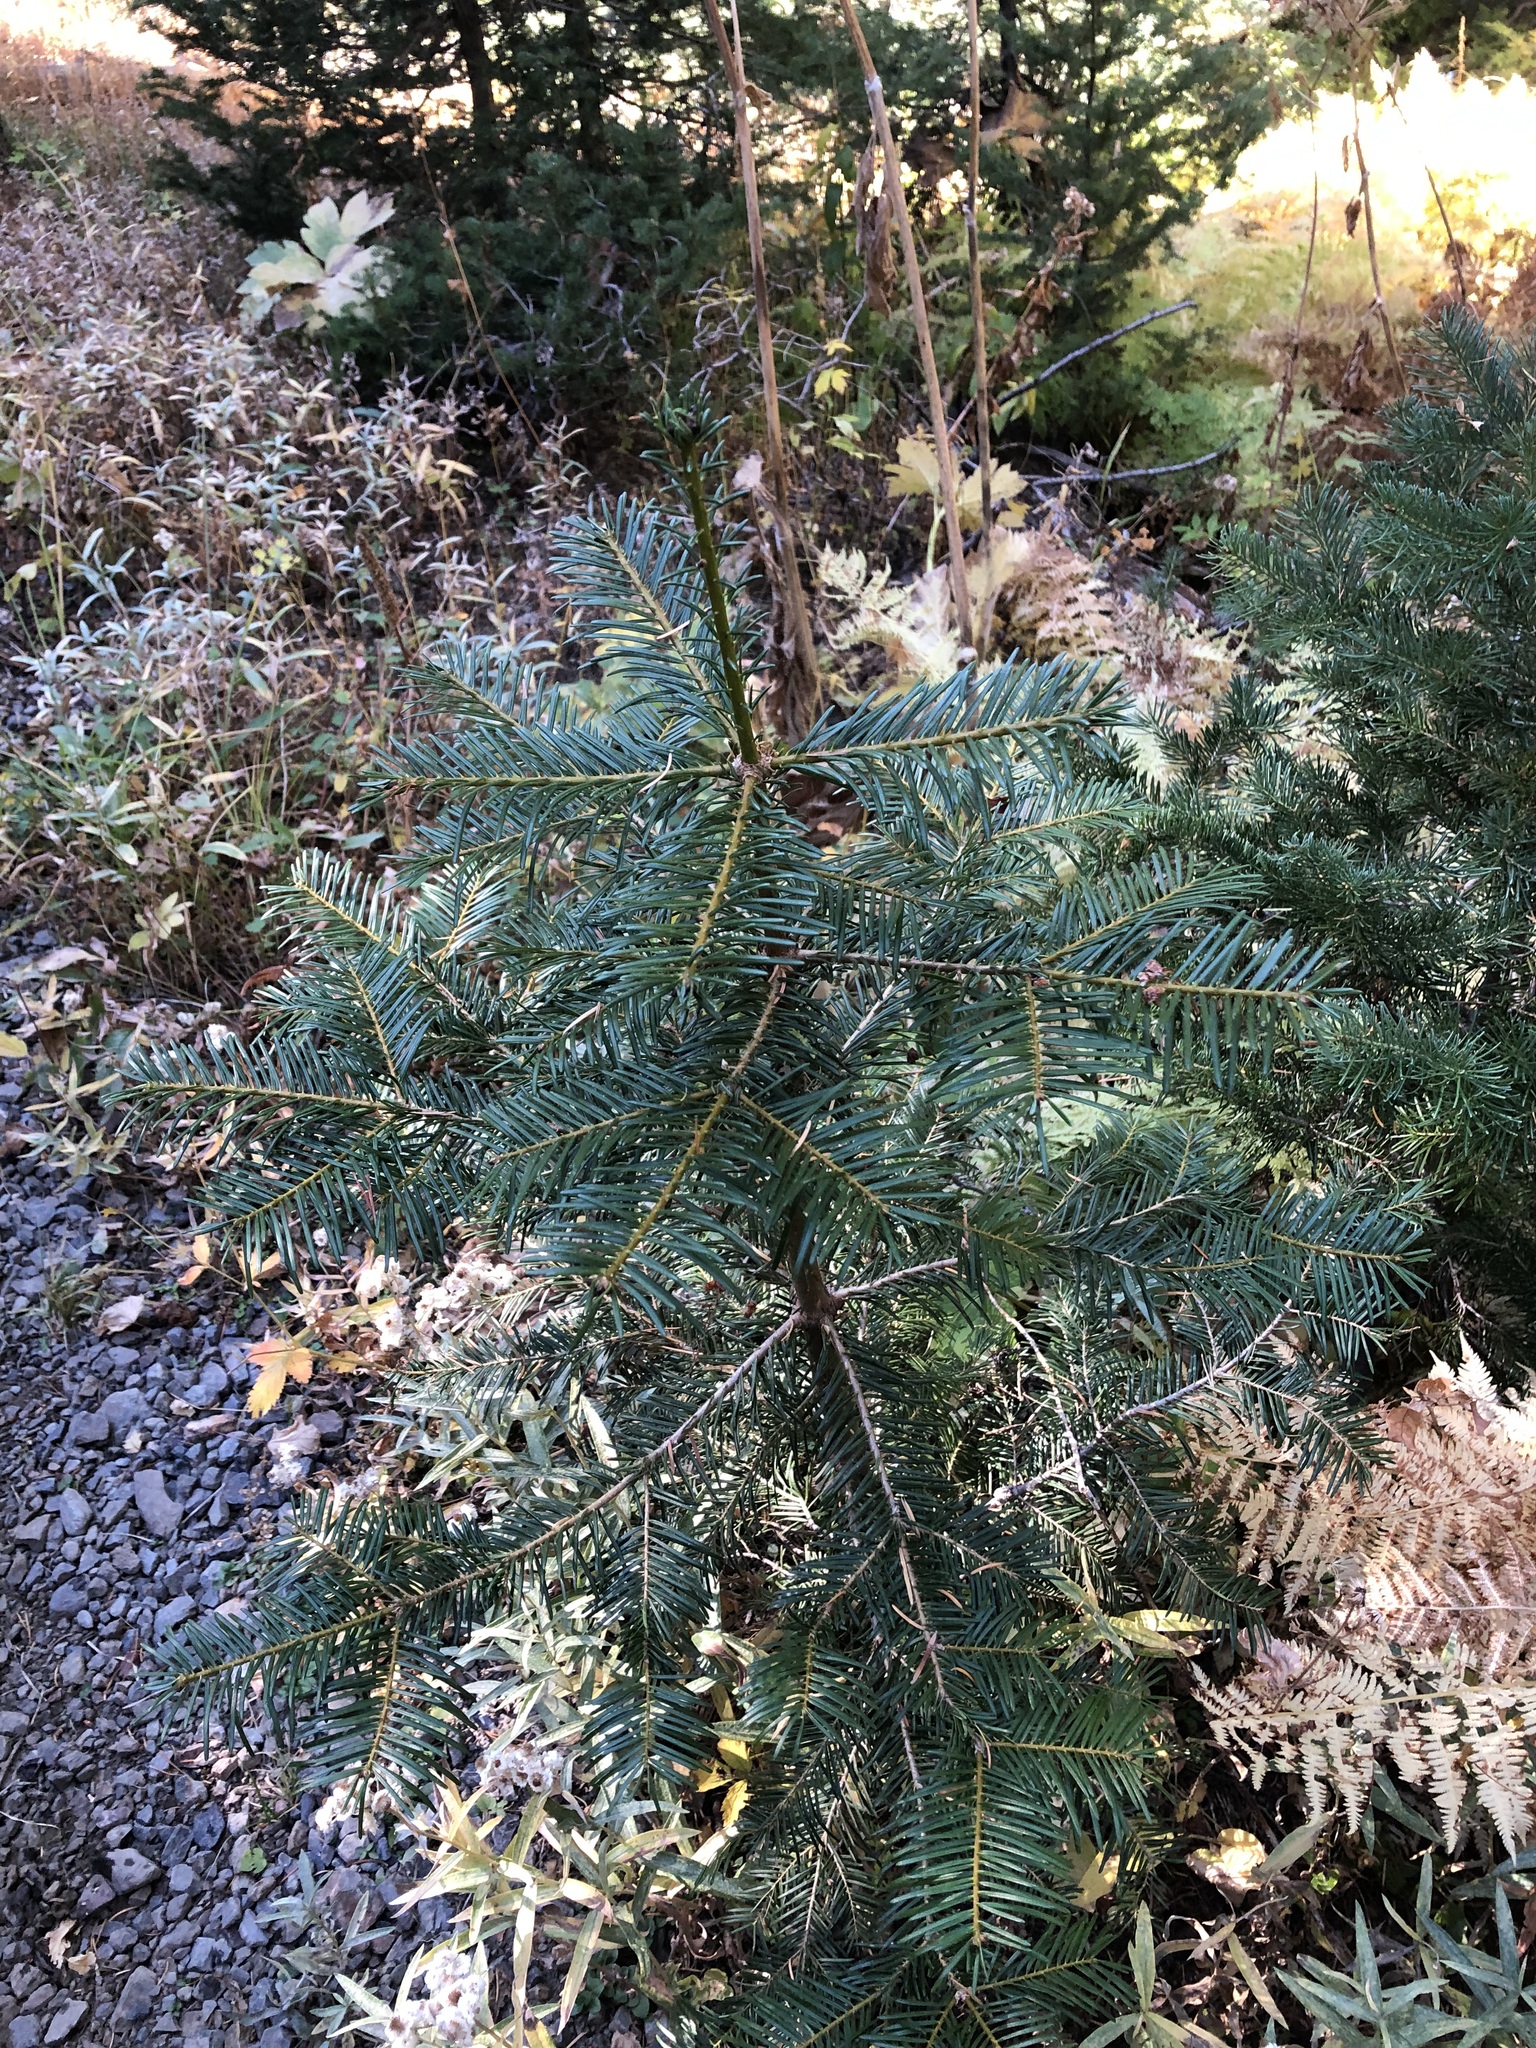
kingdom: Plantae
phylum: Tracheophyta
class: Pinopsida
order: Pinales
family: Pinaceae
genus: Abies
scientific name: Abies grandis
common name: Giant fir
